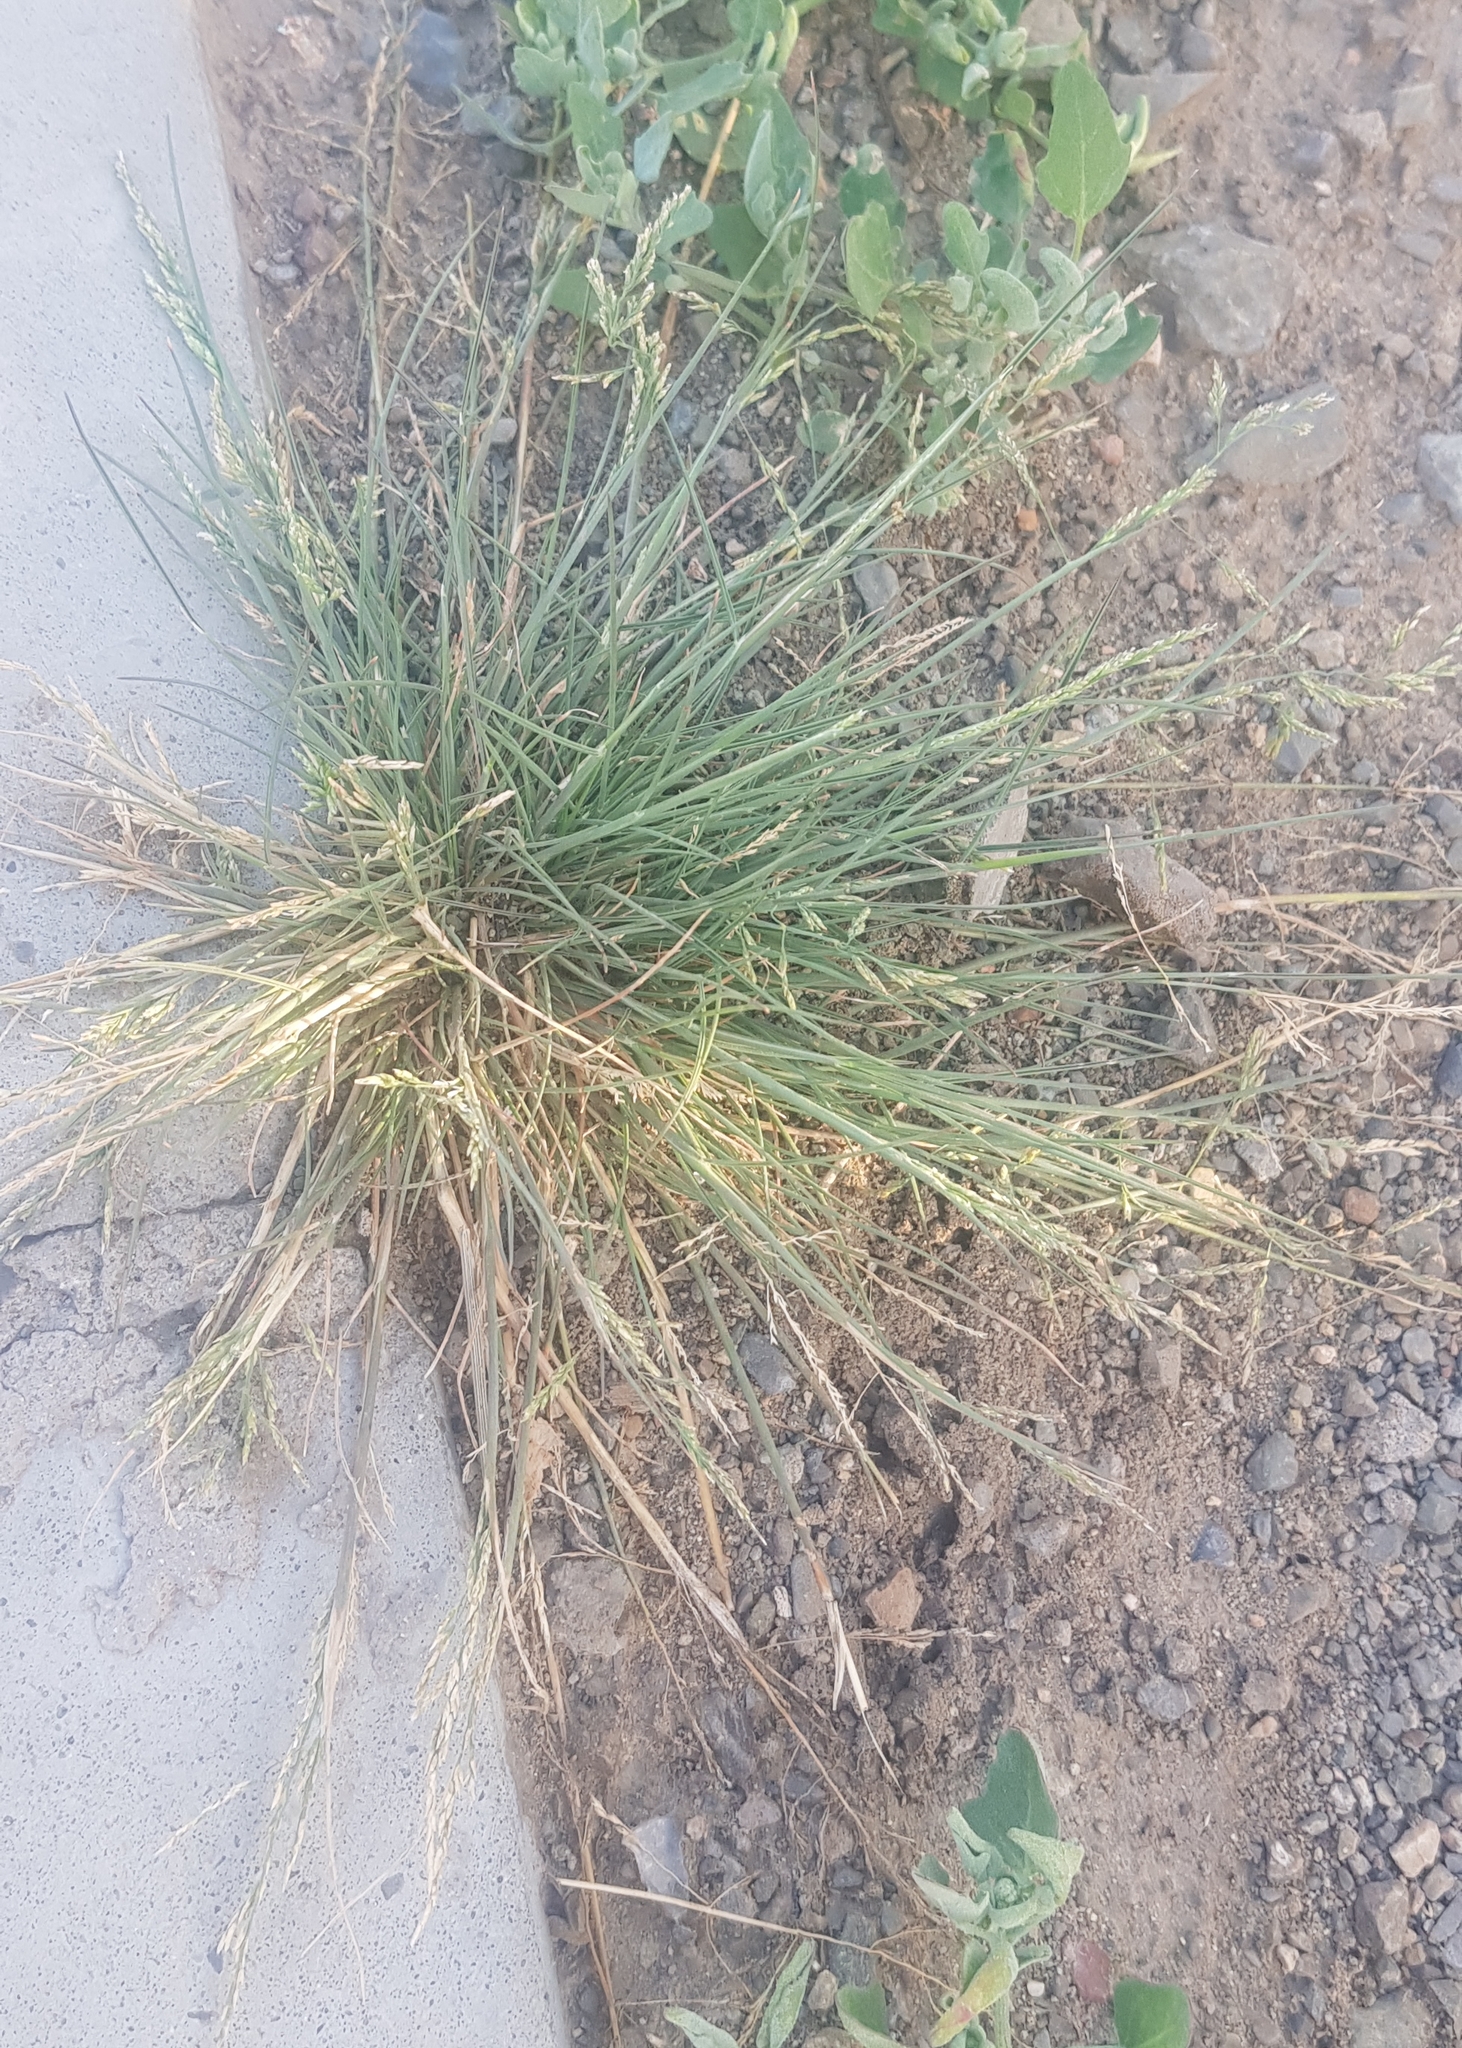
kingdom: Plantae
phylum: Tracheophyta
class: Liliopsida
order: Poales
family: Poaceae
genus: Cleistogenes
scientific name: Cleistogenes squarrosa
